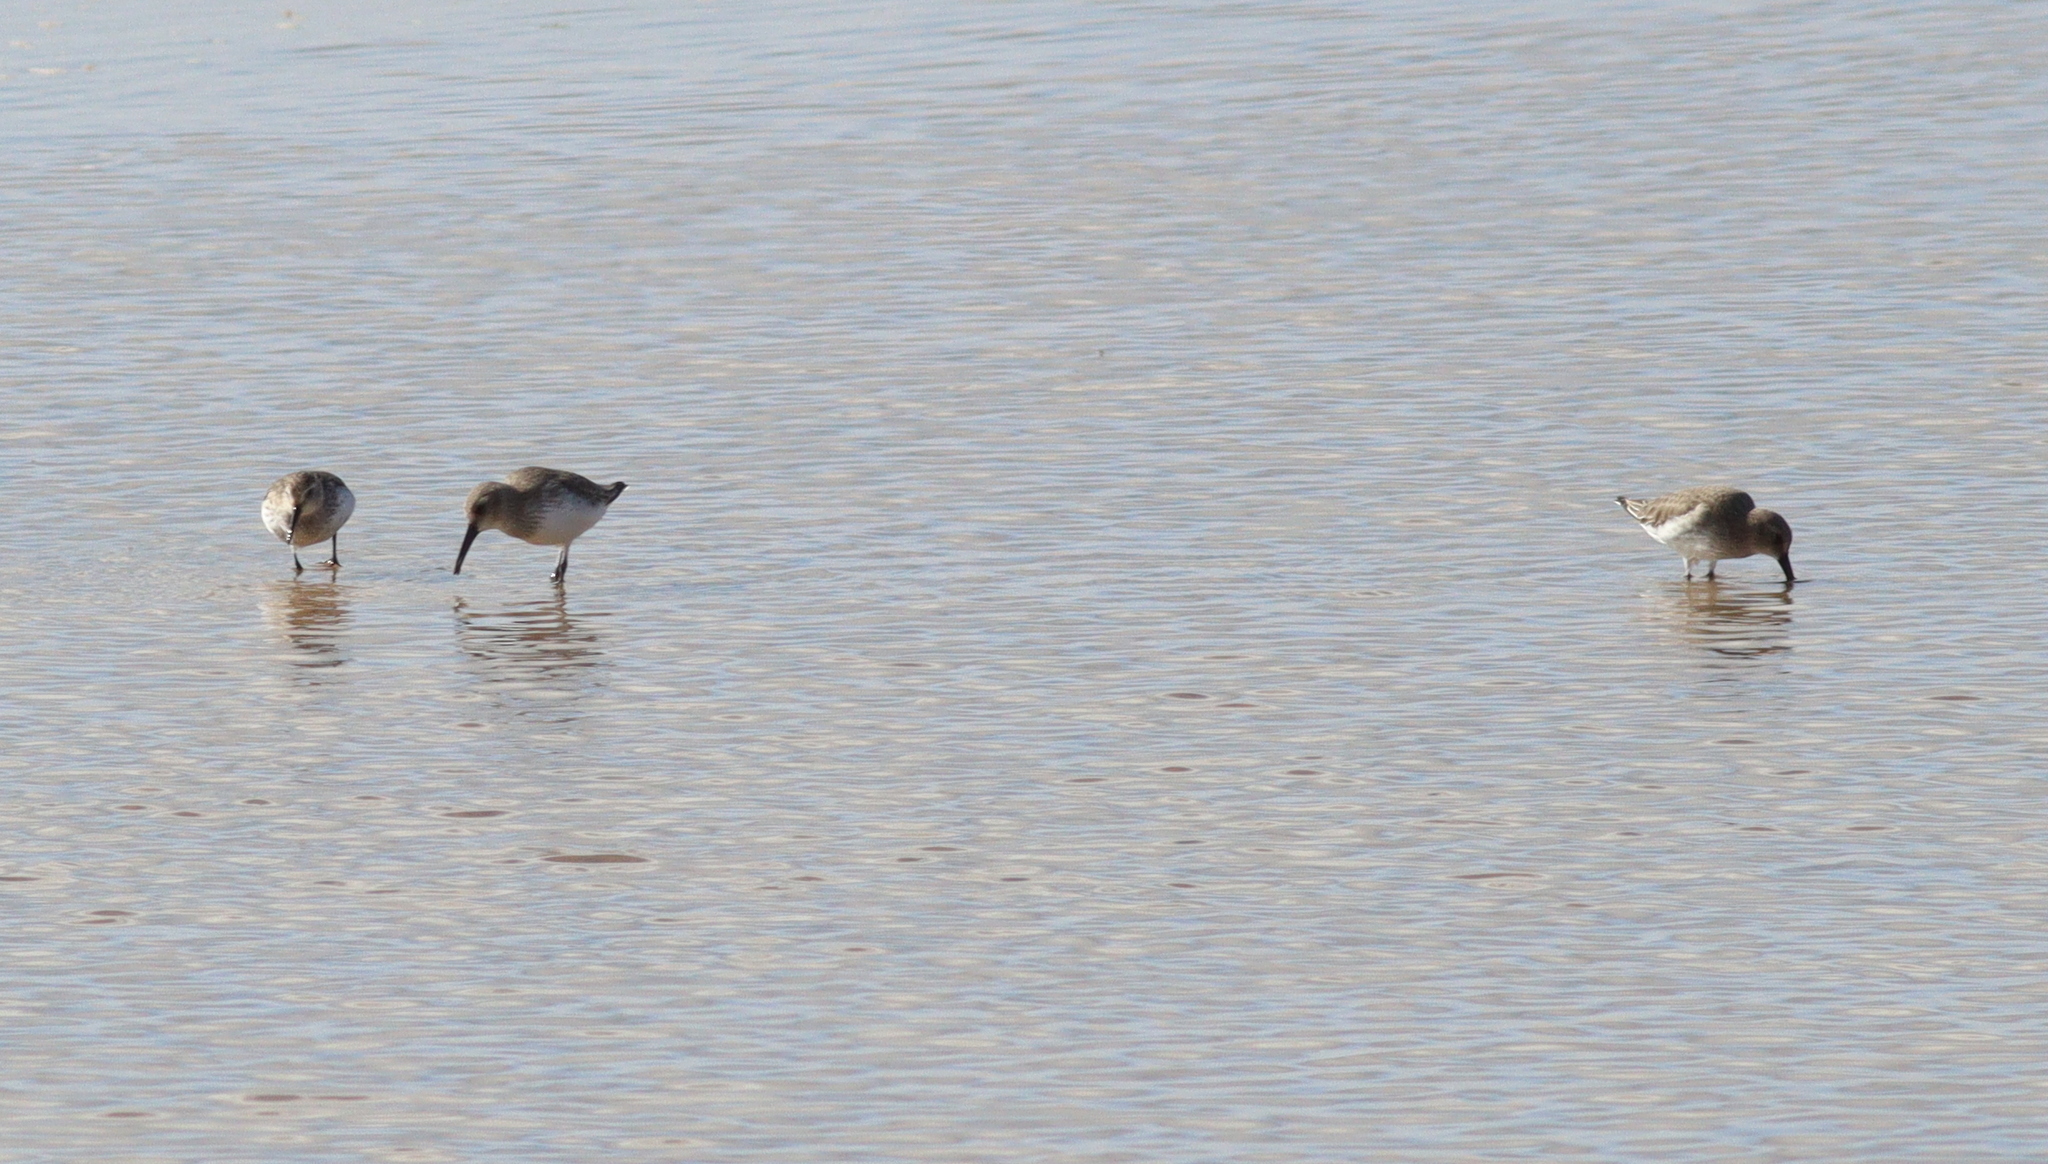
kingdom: Animalia
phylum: Chordata
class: Aves
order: Charadriiformes
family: Scolopacidae
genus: Calidris
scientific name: Calidris alpina
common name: Dunlin
